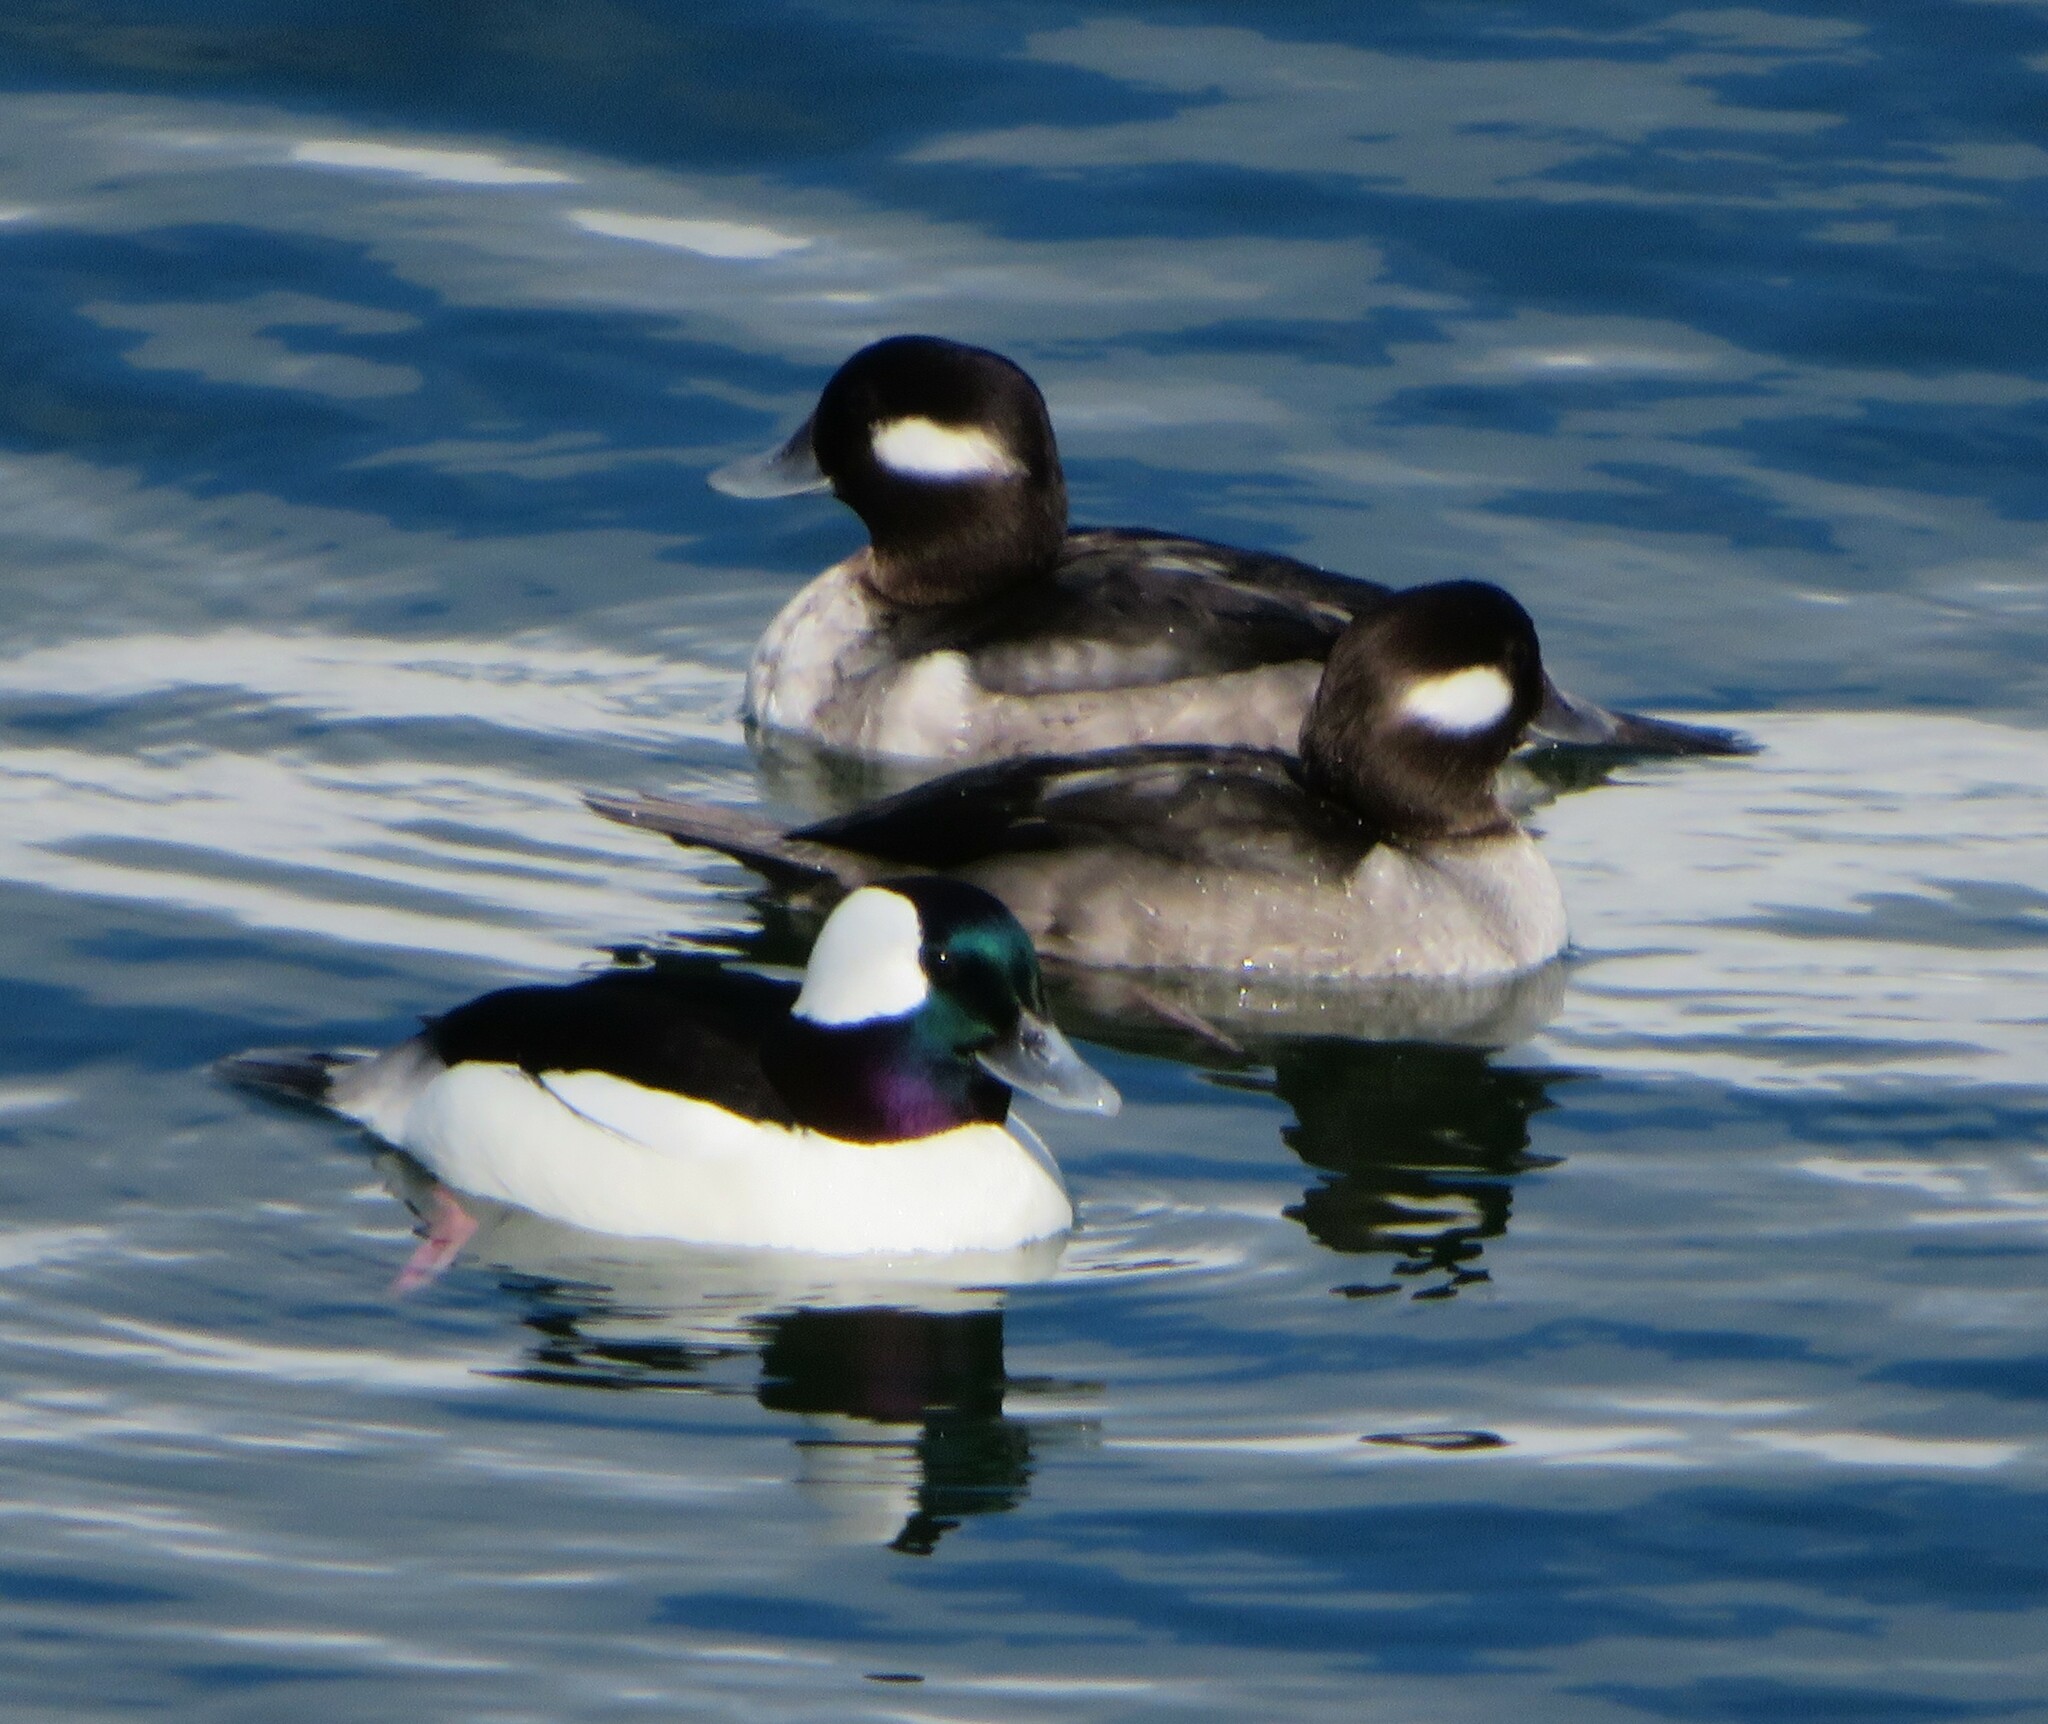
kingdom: Animalia
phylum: Chordata
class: Aves
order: Anseriformes
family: Anatidae
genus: Bucephala
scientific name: Bucephala albeola
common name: Bufflehead
